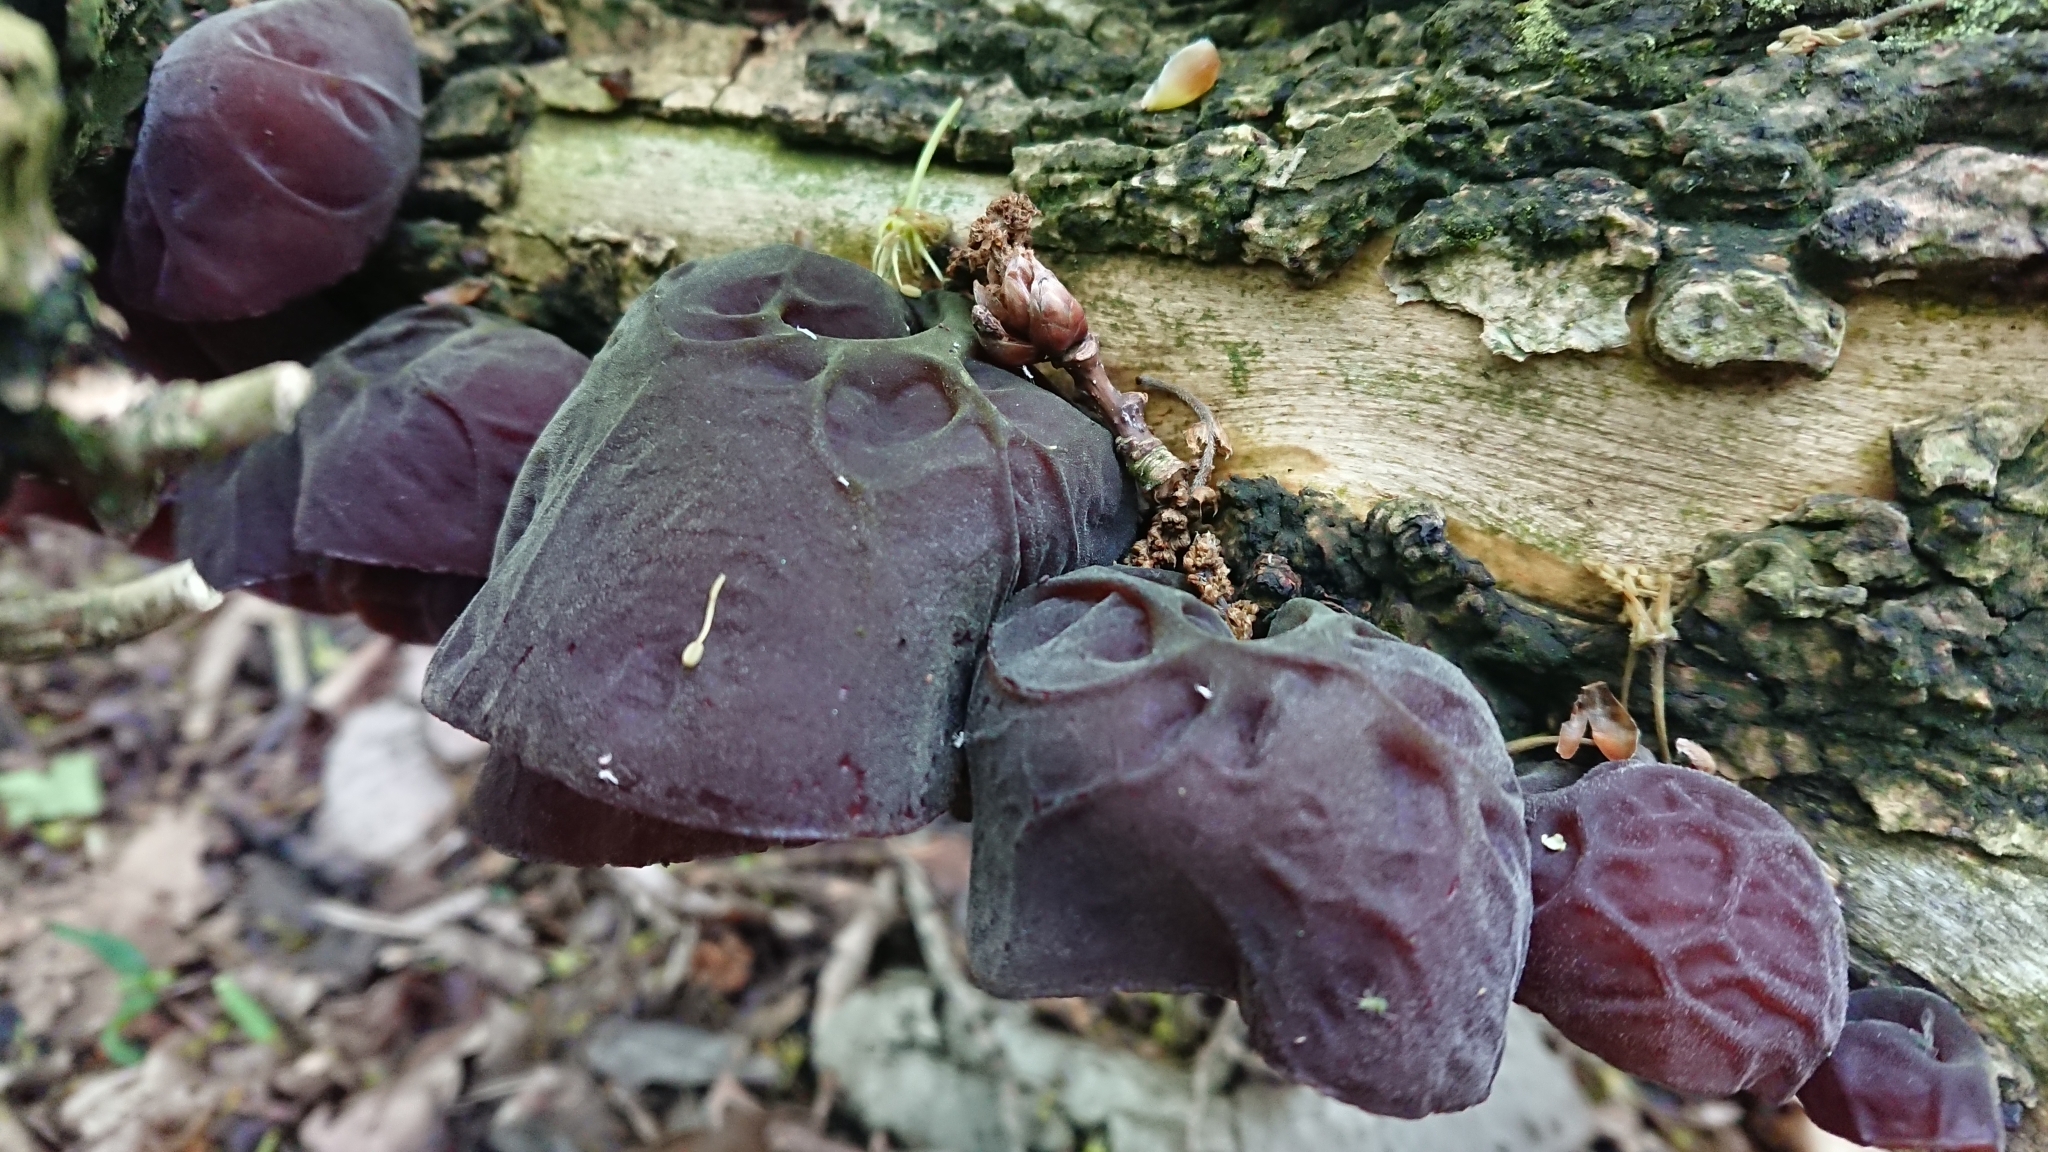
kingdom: Fungi
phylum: Basidiomycota
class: Agaricomycetes
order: Auriculariales
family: Auriculariaceae
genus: Auricularia
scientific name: Auricularia auricula-judae
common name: Jelly ear
